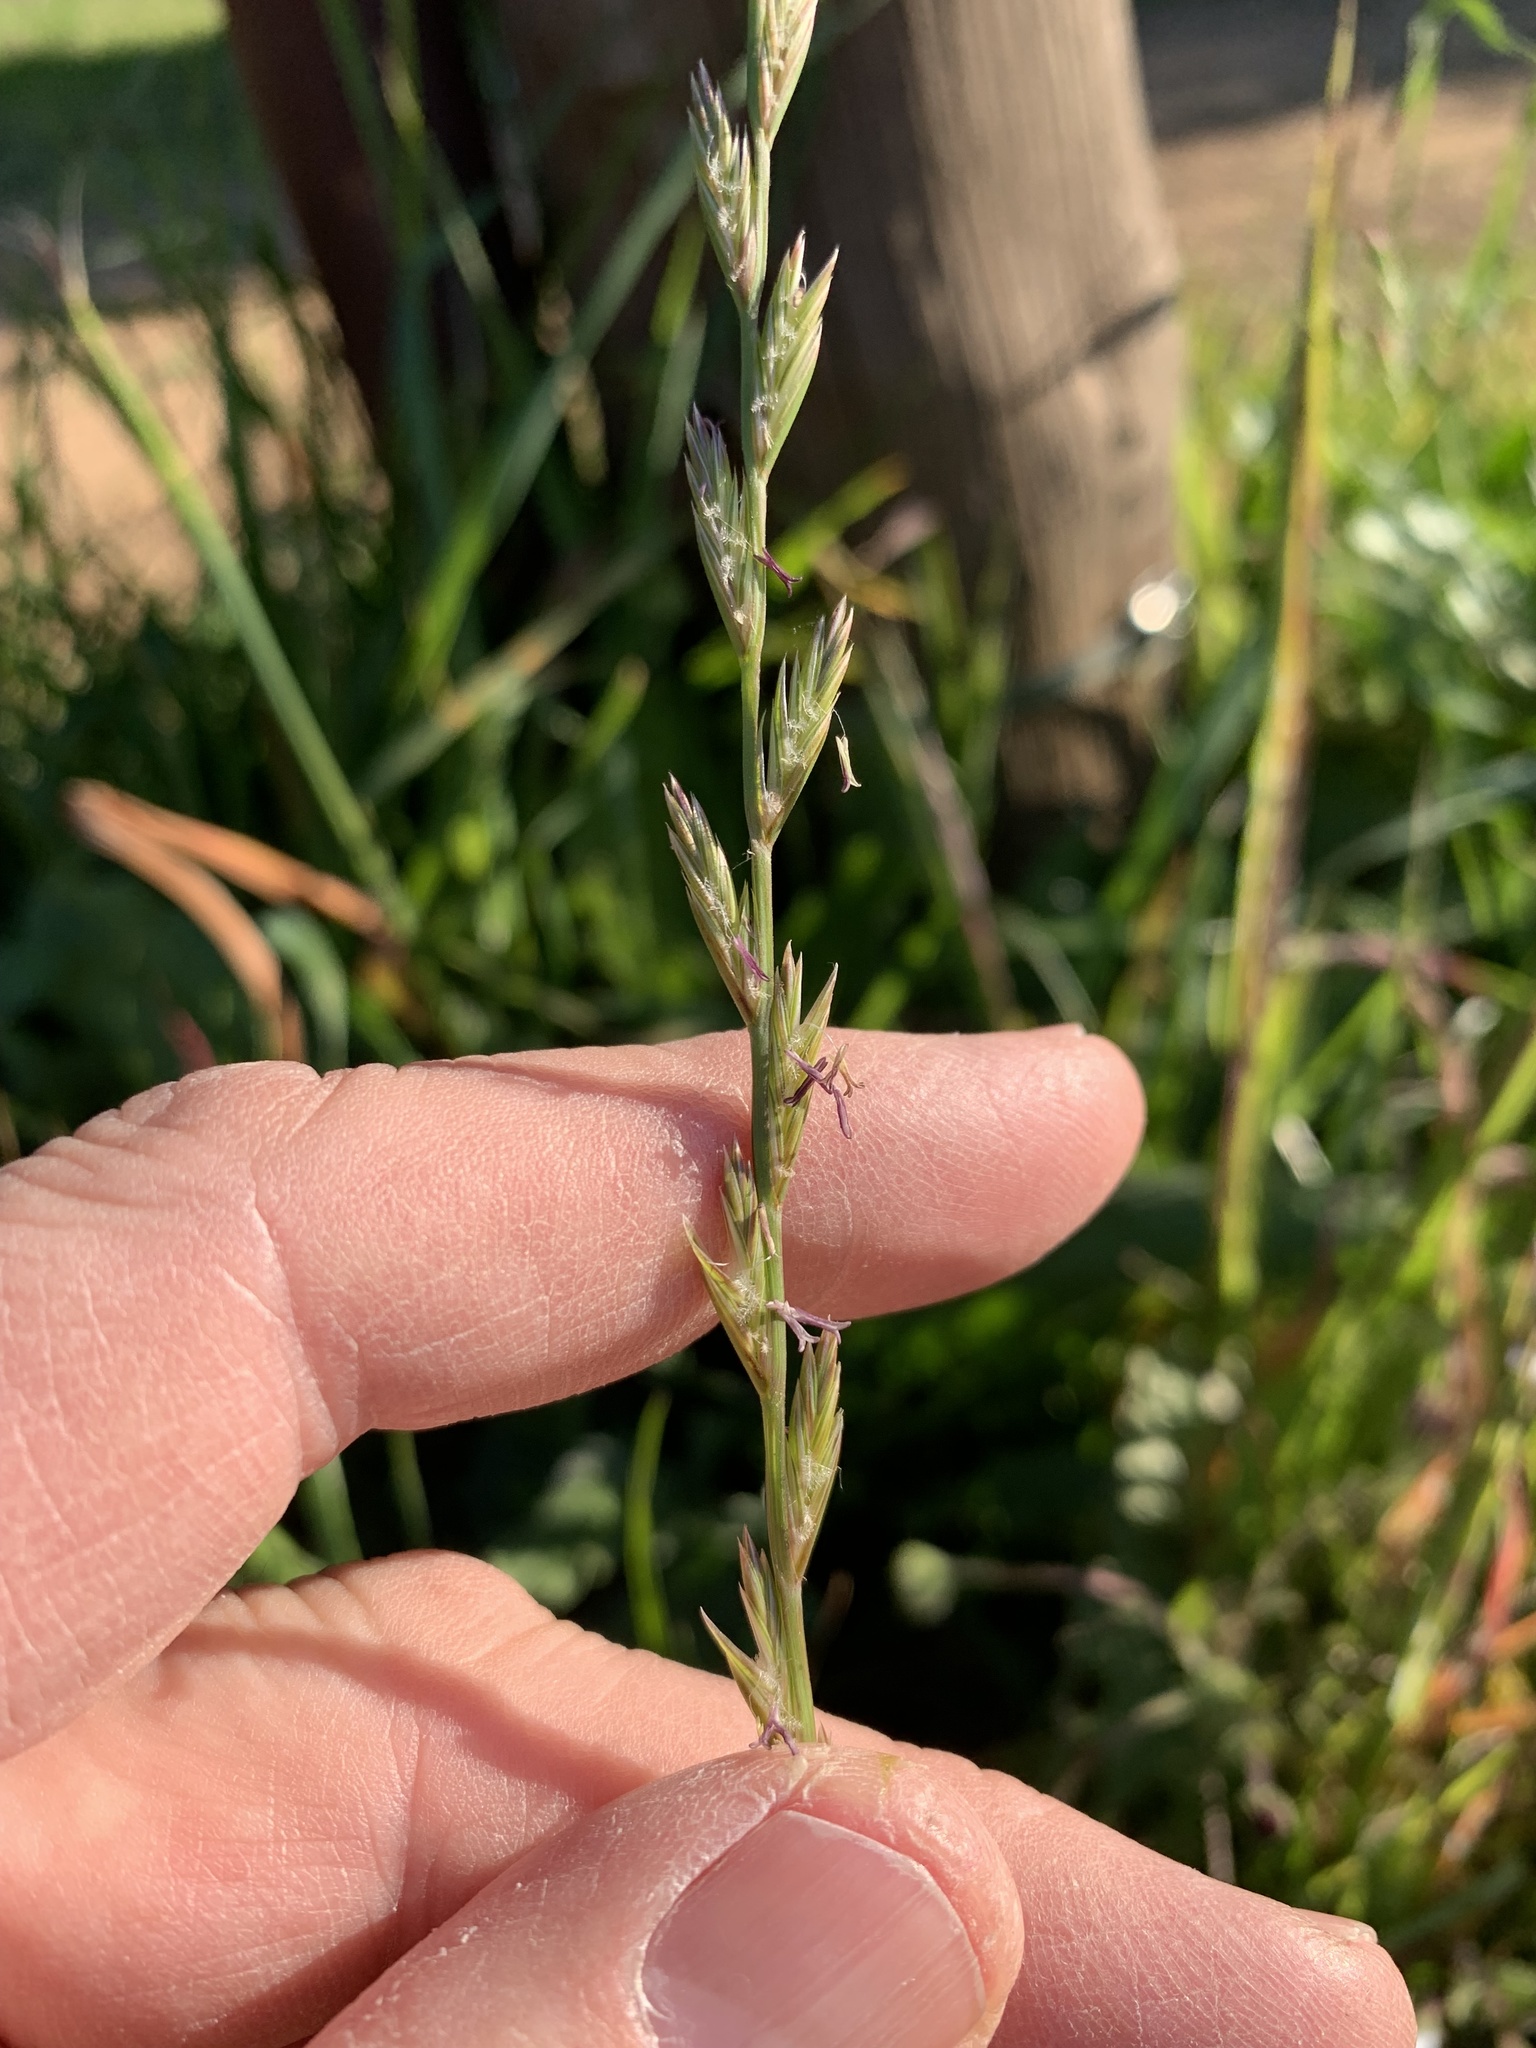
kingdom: Plantae
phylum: Tracheophyta
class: Liliopsida
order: Poales
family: Poaceae
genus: Lolium
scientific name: Lolium multiflorum
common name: Annual ryegrass
